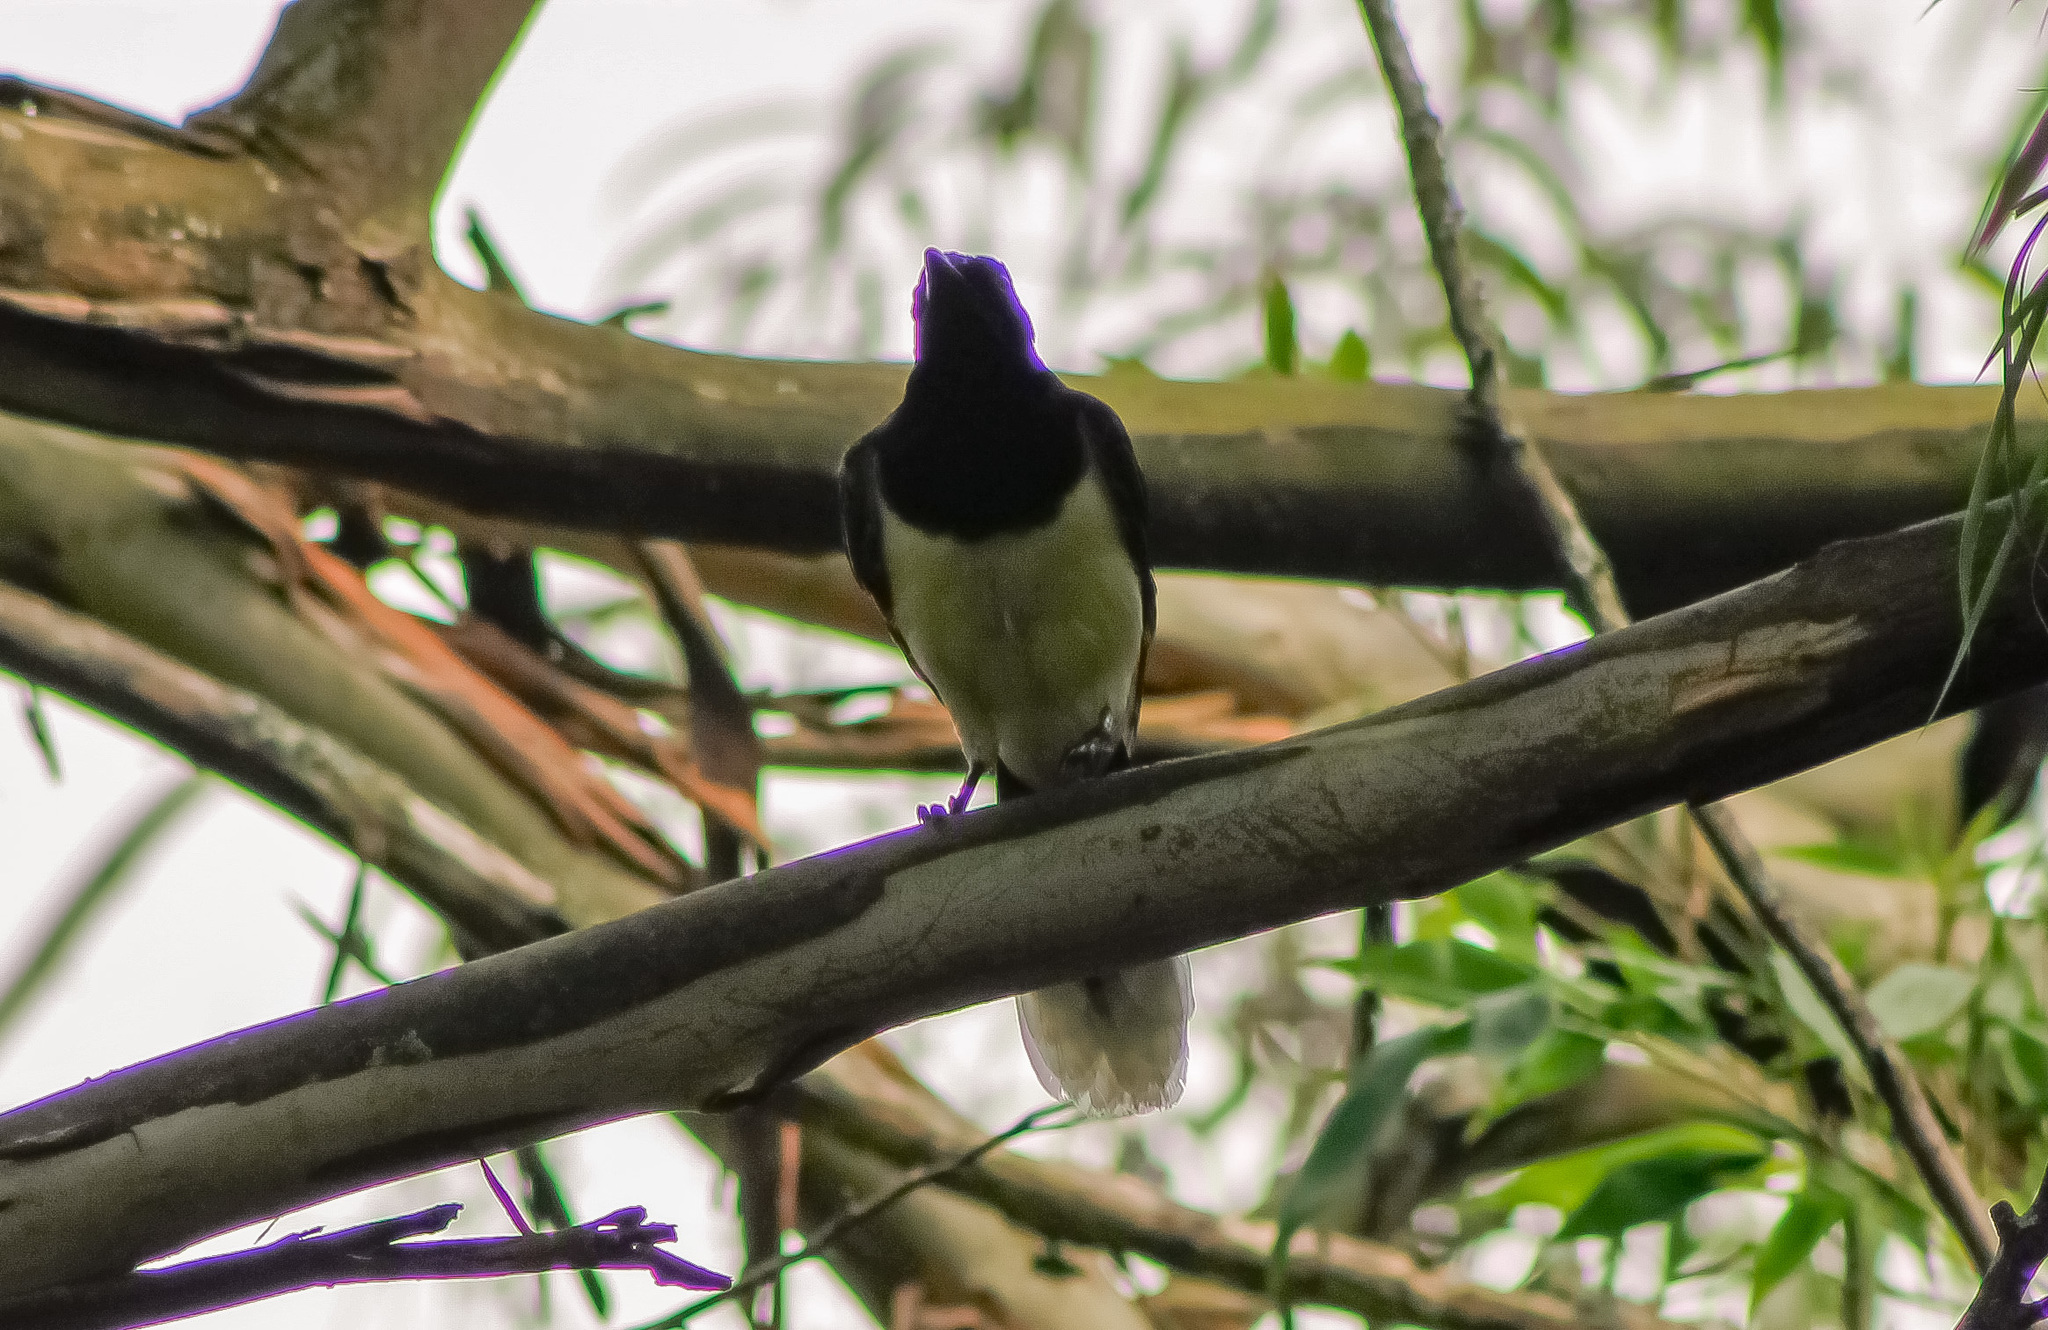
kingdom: Animalia
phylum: Chordata
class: Aves
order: Passeriformes
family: Corvidae
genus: Cyanocorax
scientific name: Cyanocorax affinis
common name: Black-chested jay
